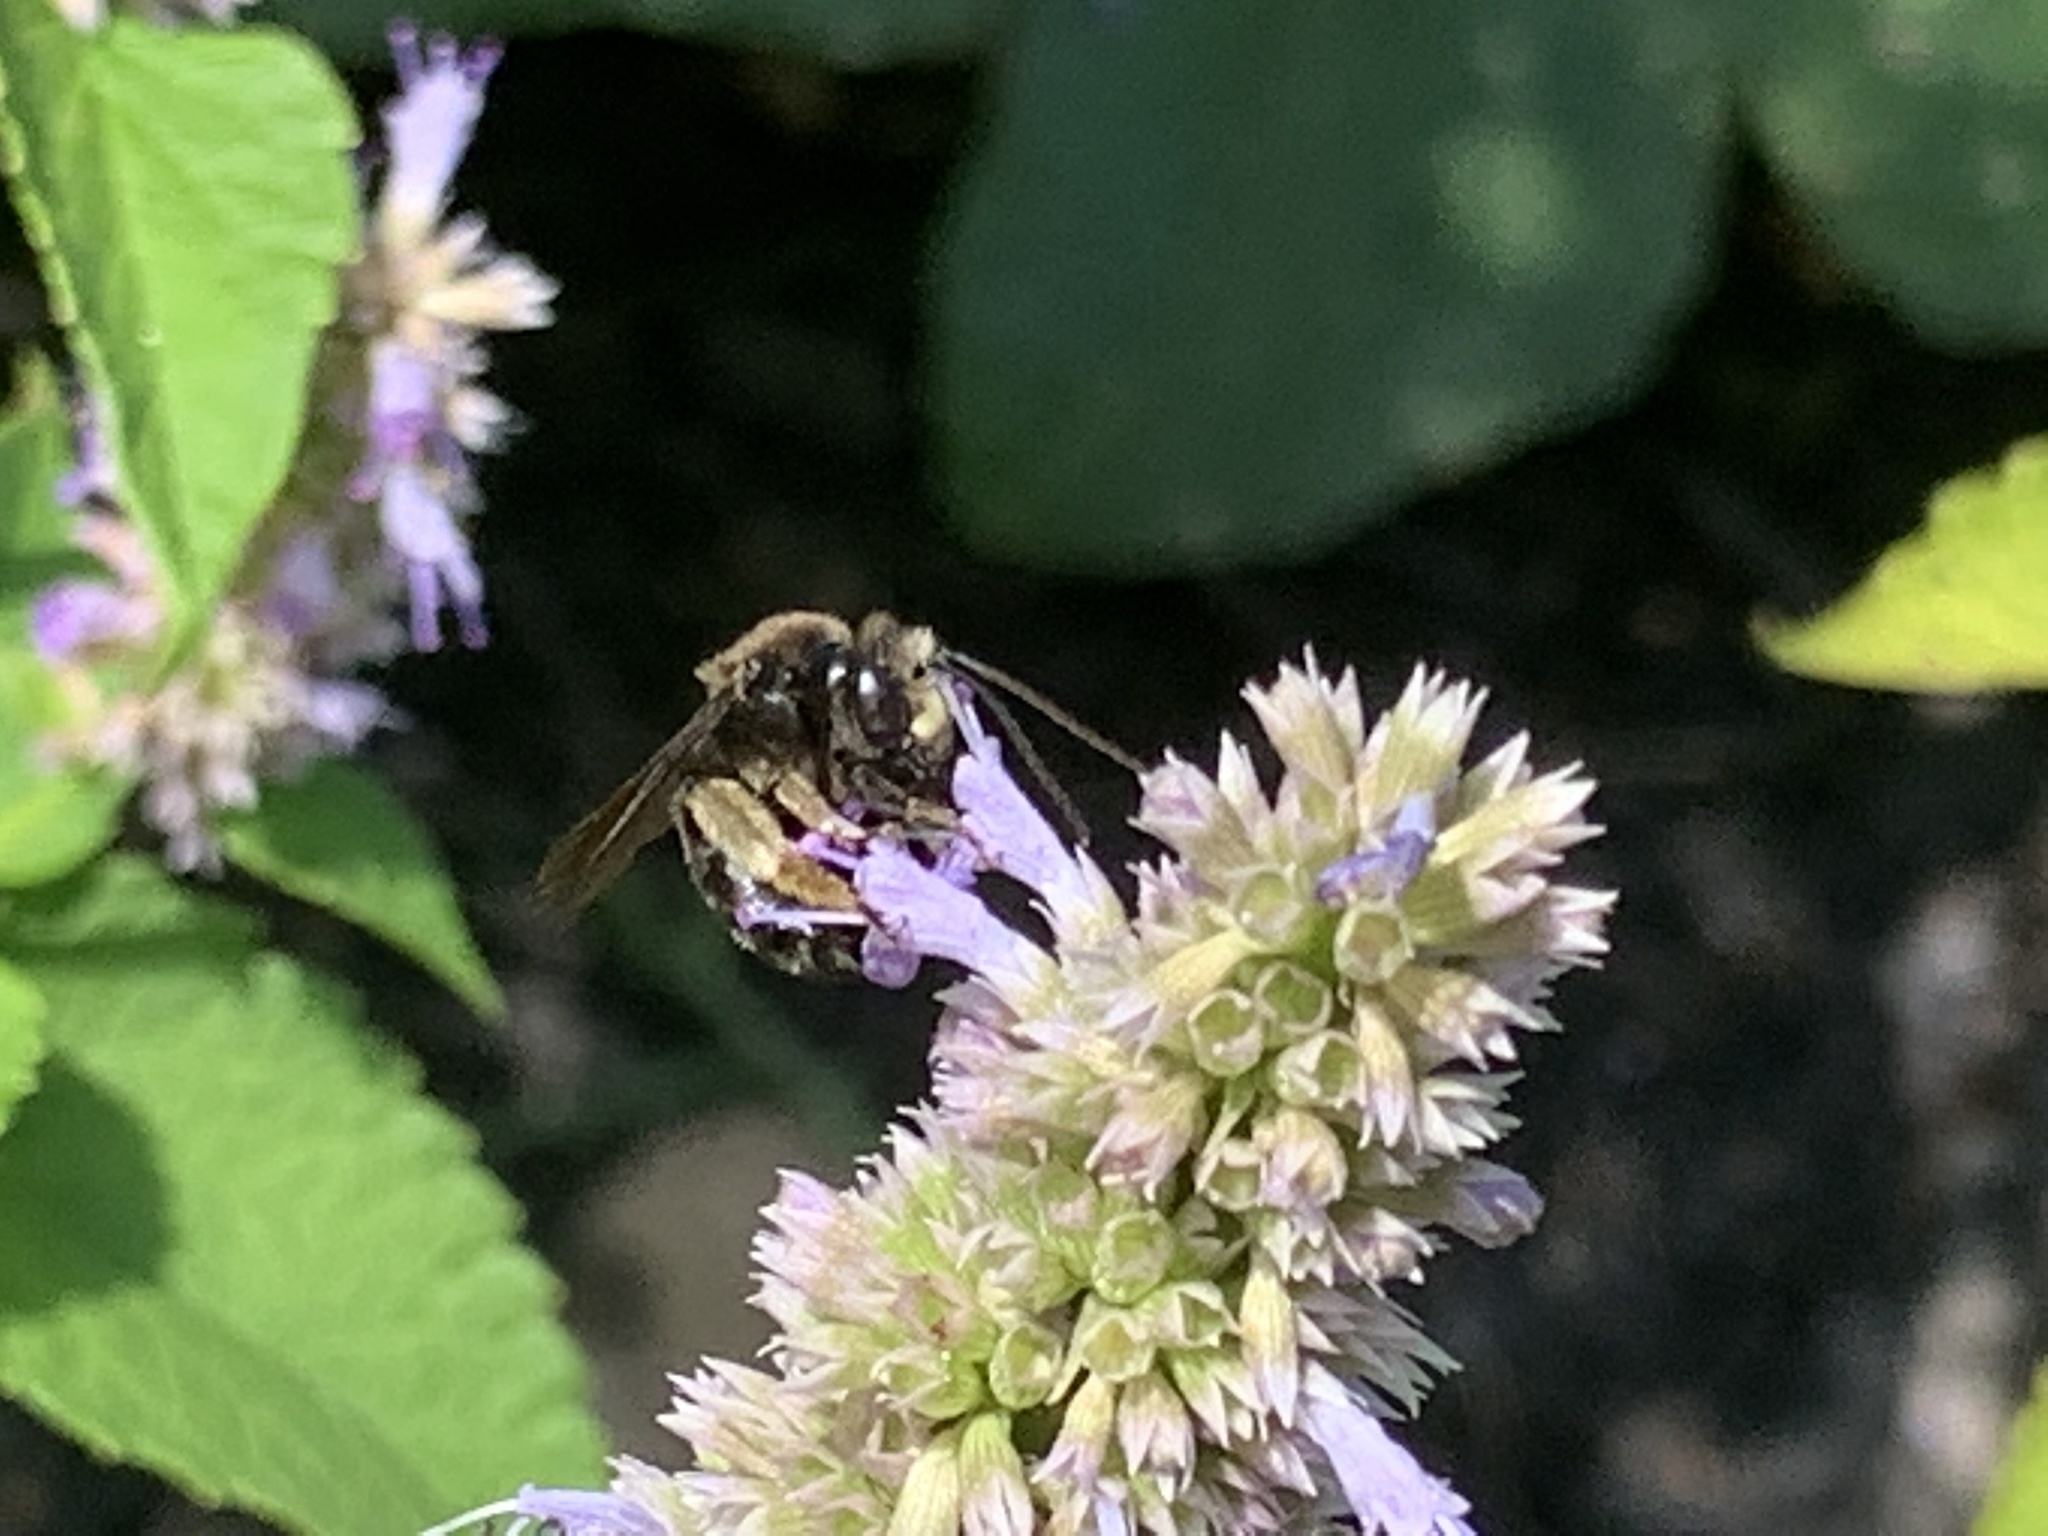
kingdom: Animalia
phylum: Arthropoda
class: Insecta
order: Hymenoptera
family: Apidae
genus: Melissodes
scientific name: Melissodes bimaculatus
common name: Two-spotted long-horned bee
